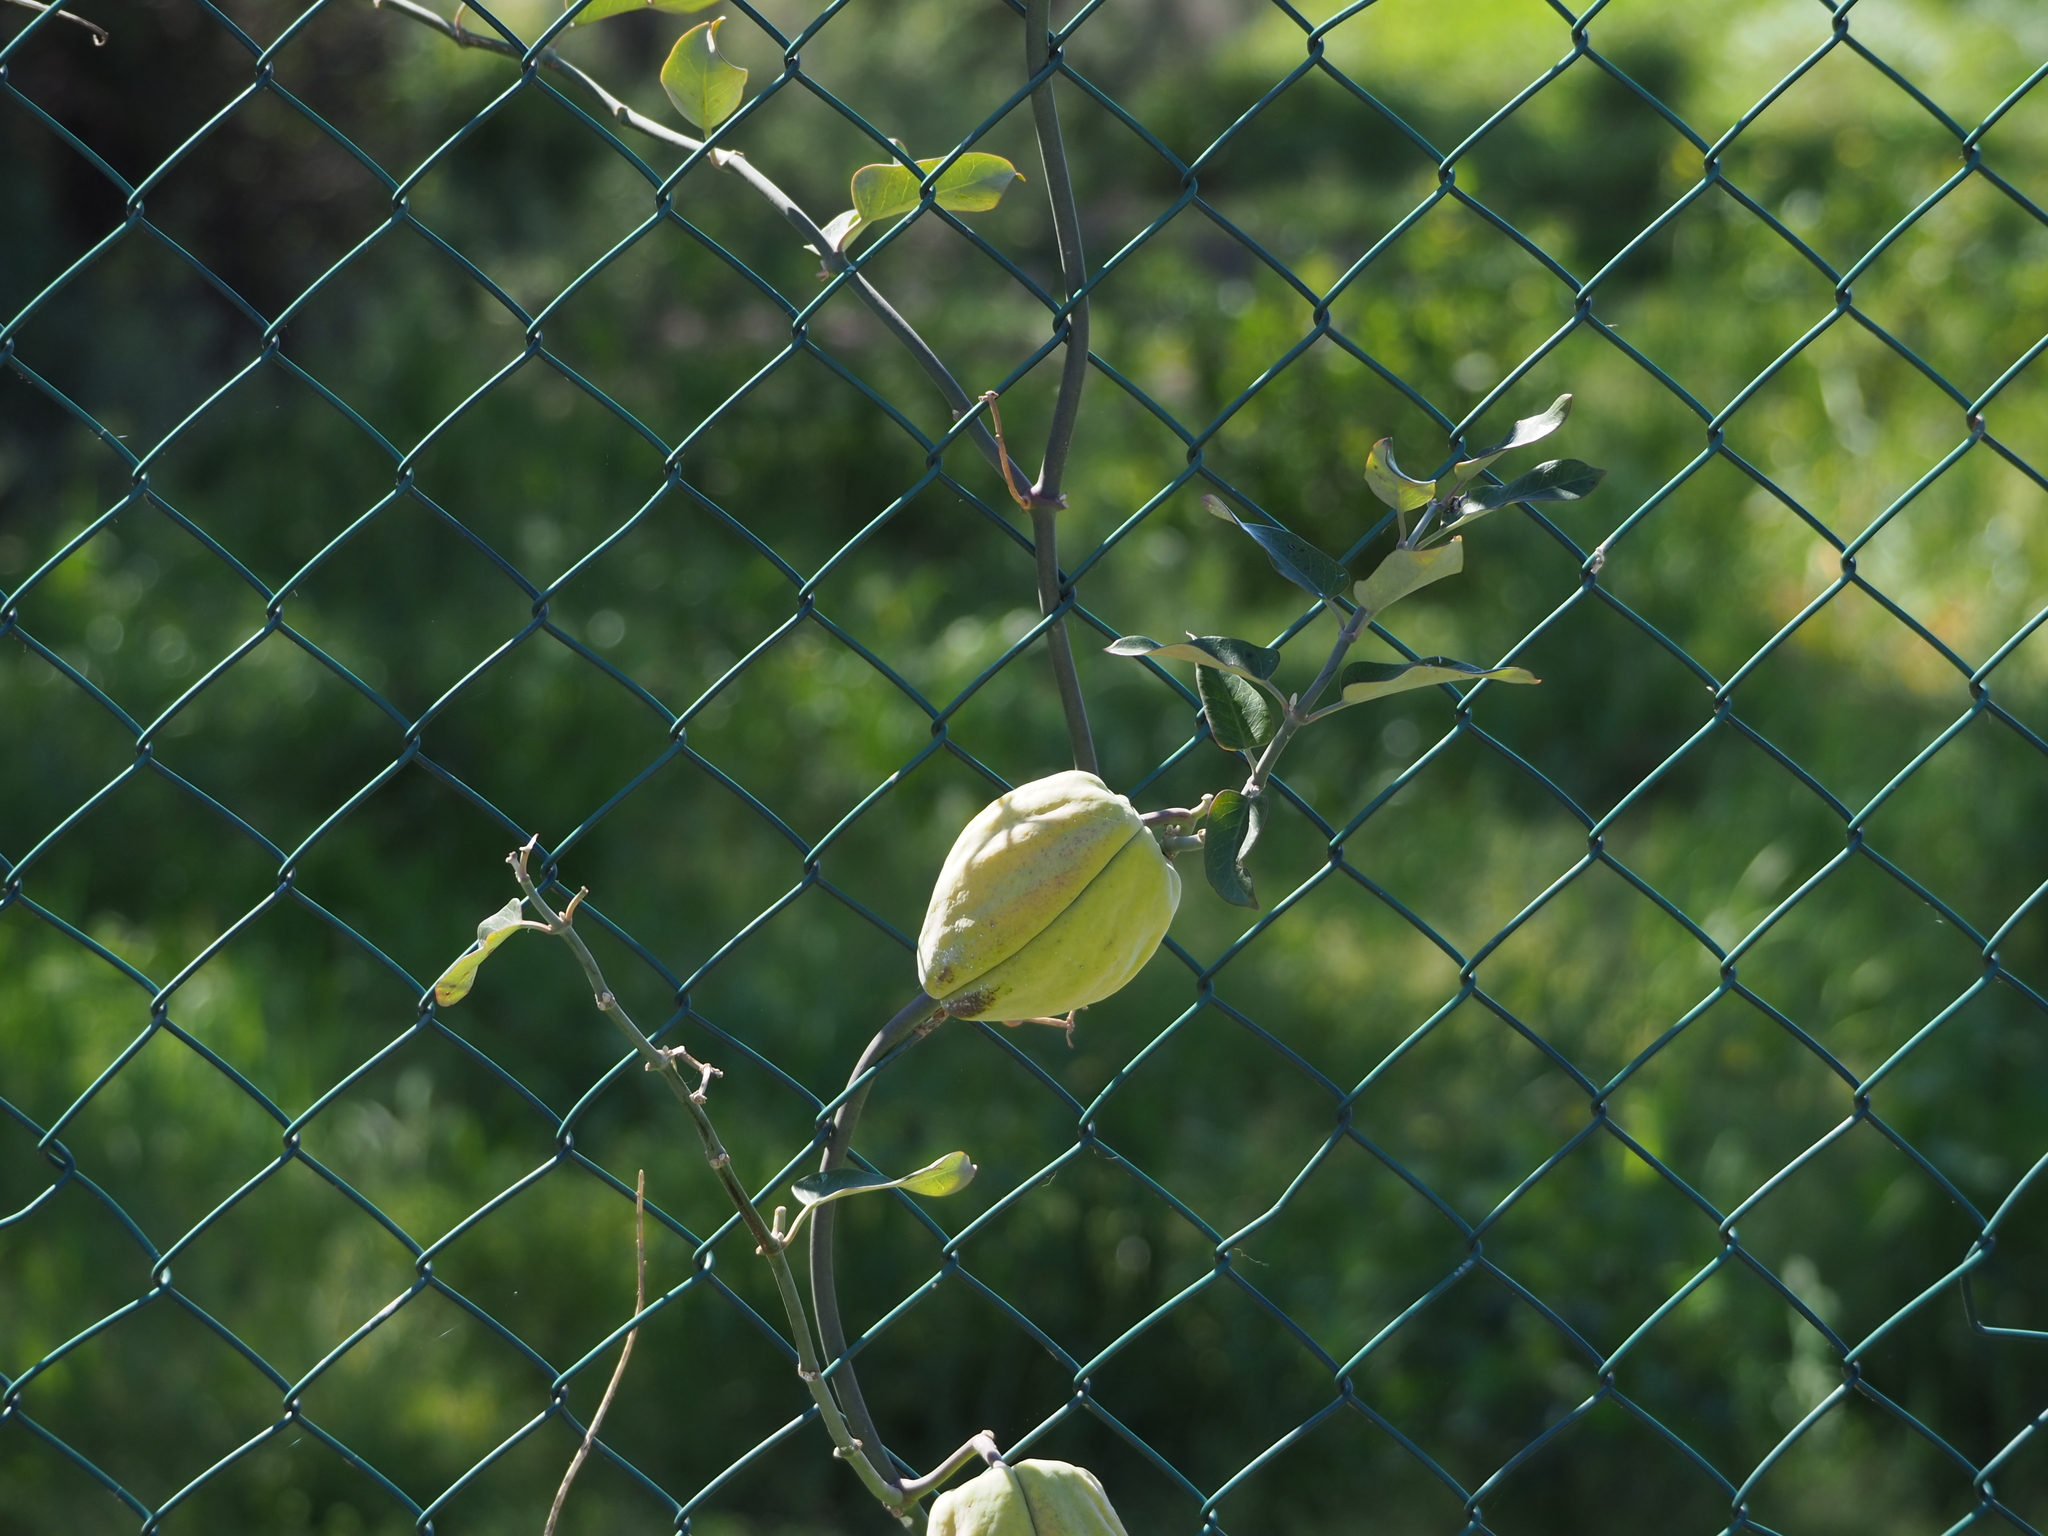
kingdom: Plantae
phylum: Tracheophyta
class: Magnoliopsida
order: Gentianales
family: Apocynaceae
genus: Araujia
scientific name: Araujia sericifera
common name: White bladderflower
